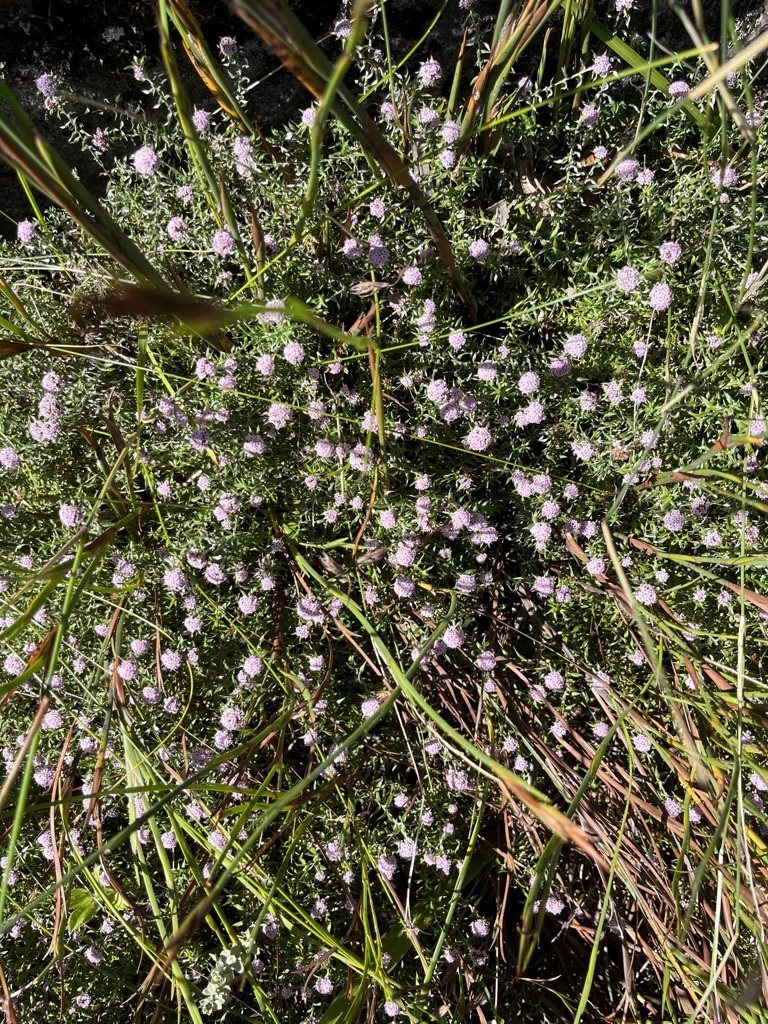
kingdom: Plantae
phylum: Tracheophyta
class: Magnoliopsida
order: Asterales
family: Asteraceae
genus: Stoebe
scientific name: Stoebe prostrata
